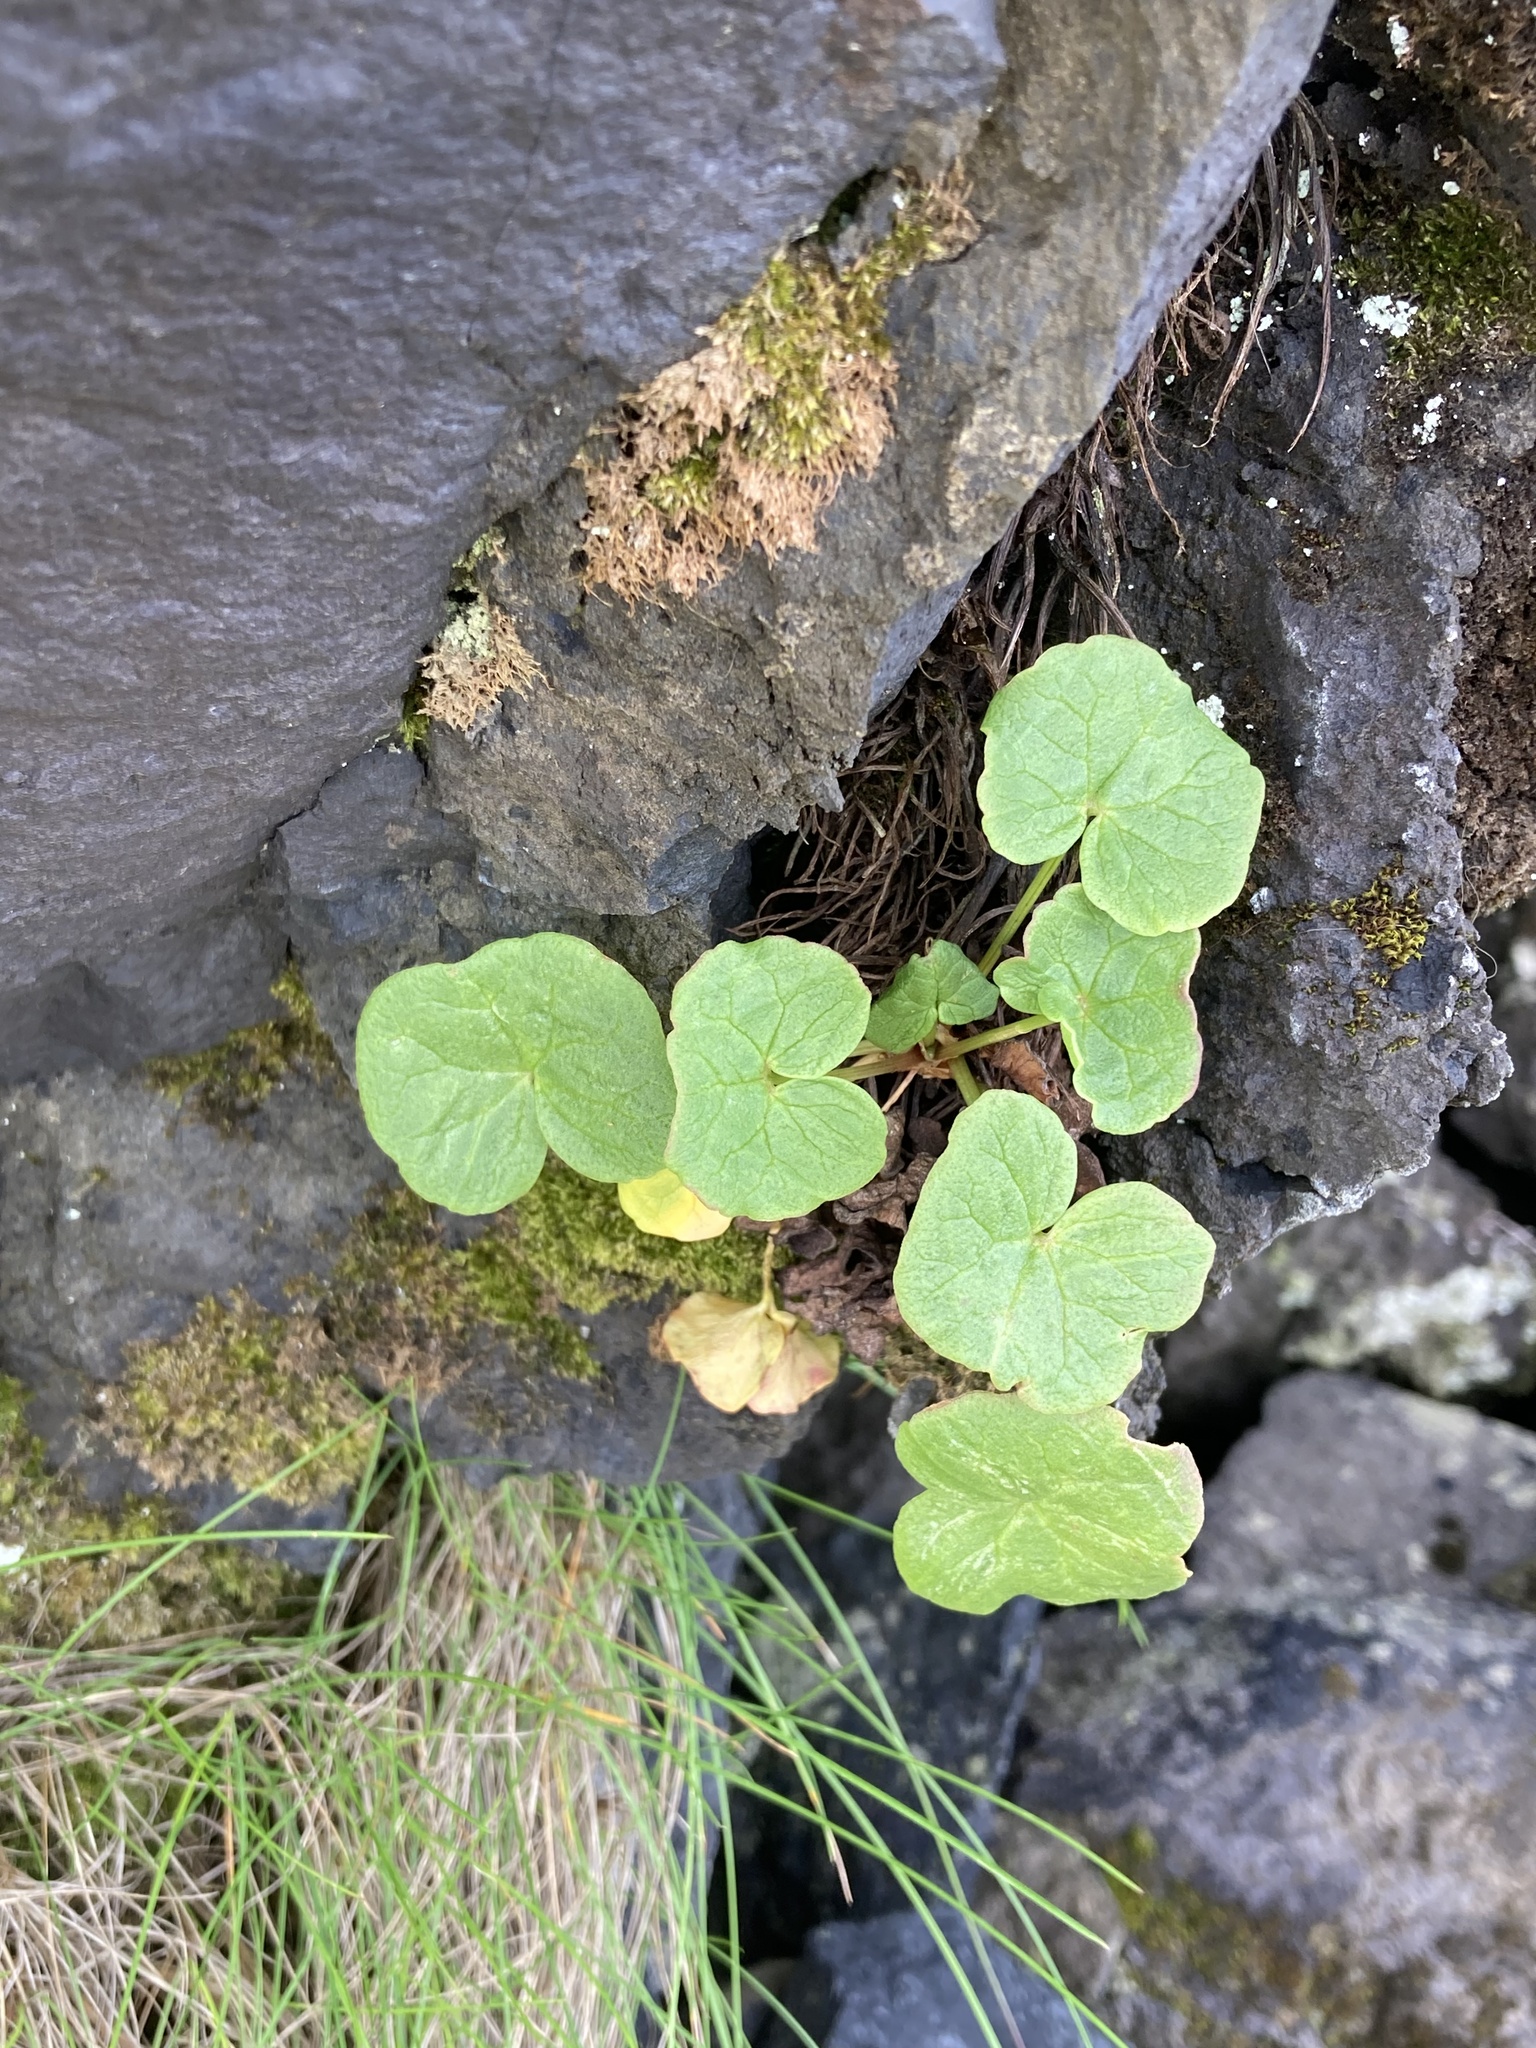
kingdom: Plantae
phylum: Tracheophyta
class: Magnoliopsida
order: Caryophyllales
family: Polygonaceae
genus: Oxyria
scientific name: Oxyria digyna
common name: Alpine mountain-sorrel
